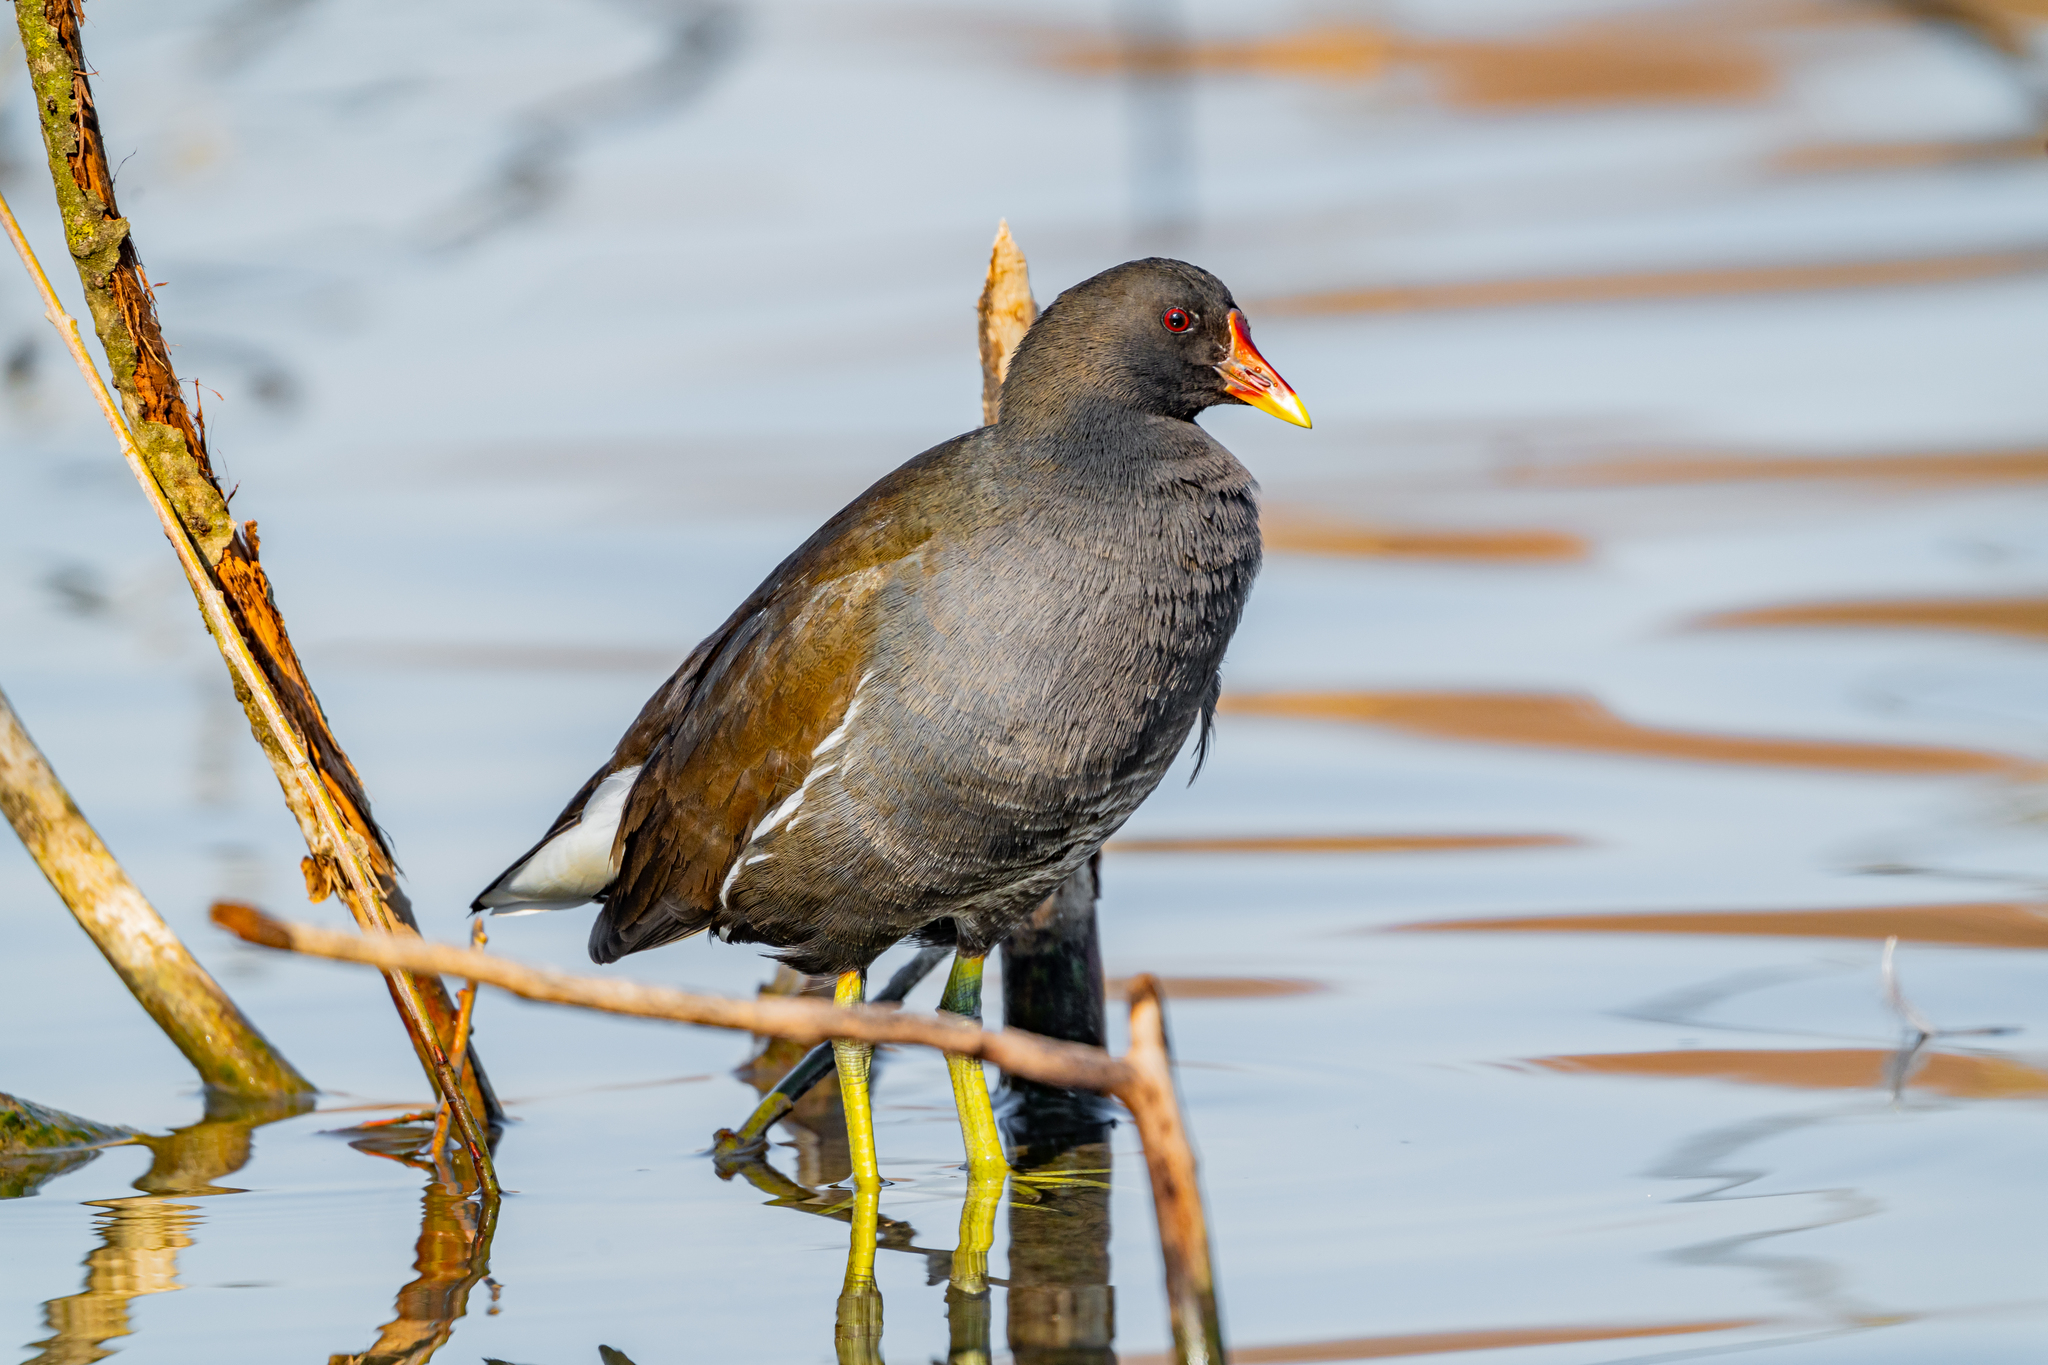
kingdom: Animalia
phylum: Chordata
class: Aves
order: Gruiformes
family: Rallidae
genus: Gallinula
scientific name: Gallinula chloropus
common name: Common moorhen
